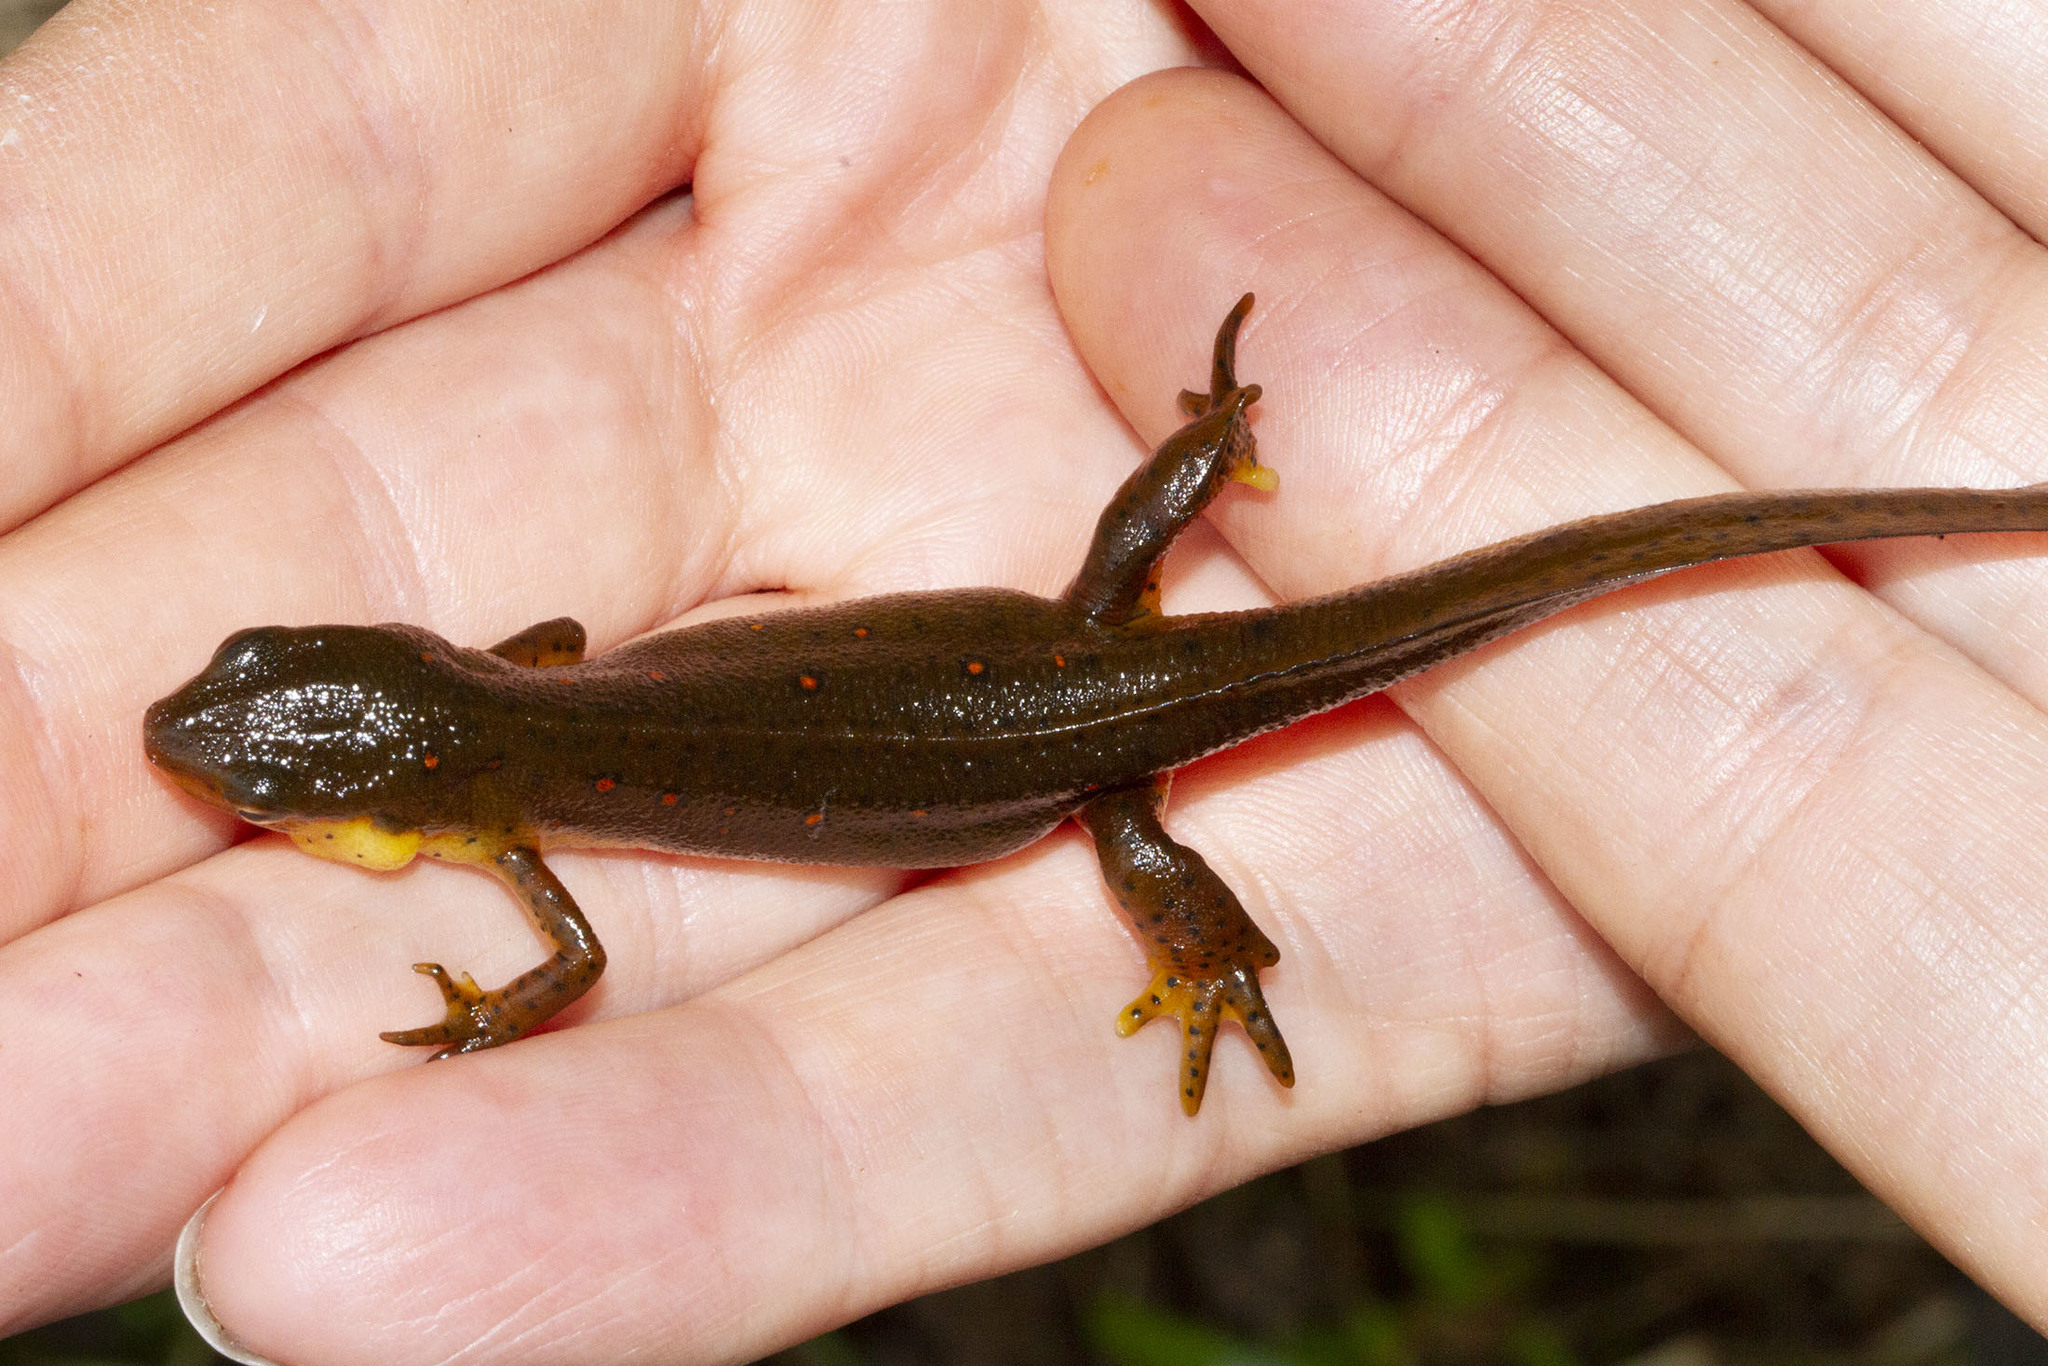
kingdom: Animalia
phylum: Chordata
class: Amphibia
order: Caudata
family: Salamandridae
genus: Notophthalmus
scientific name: Notophthalmus viridescens
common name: Eastern newt
